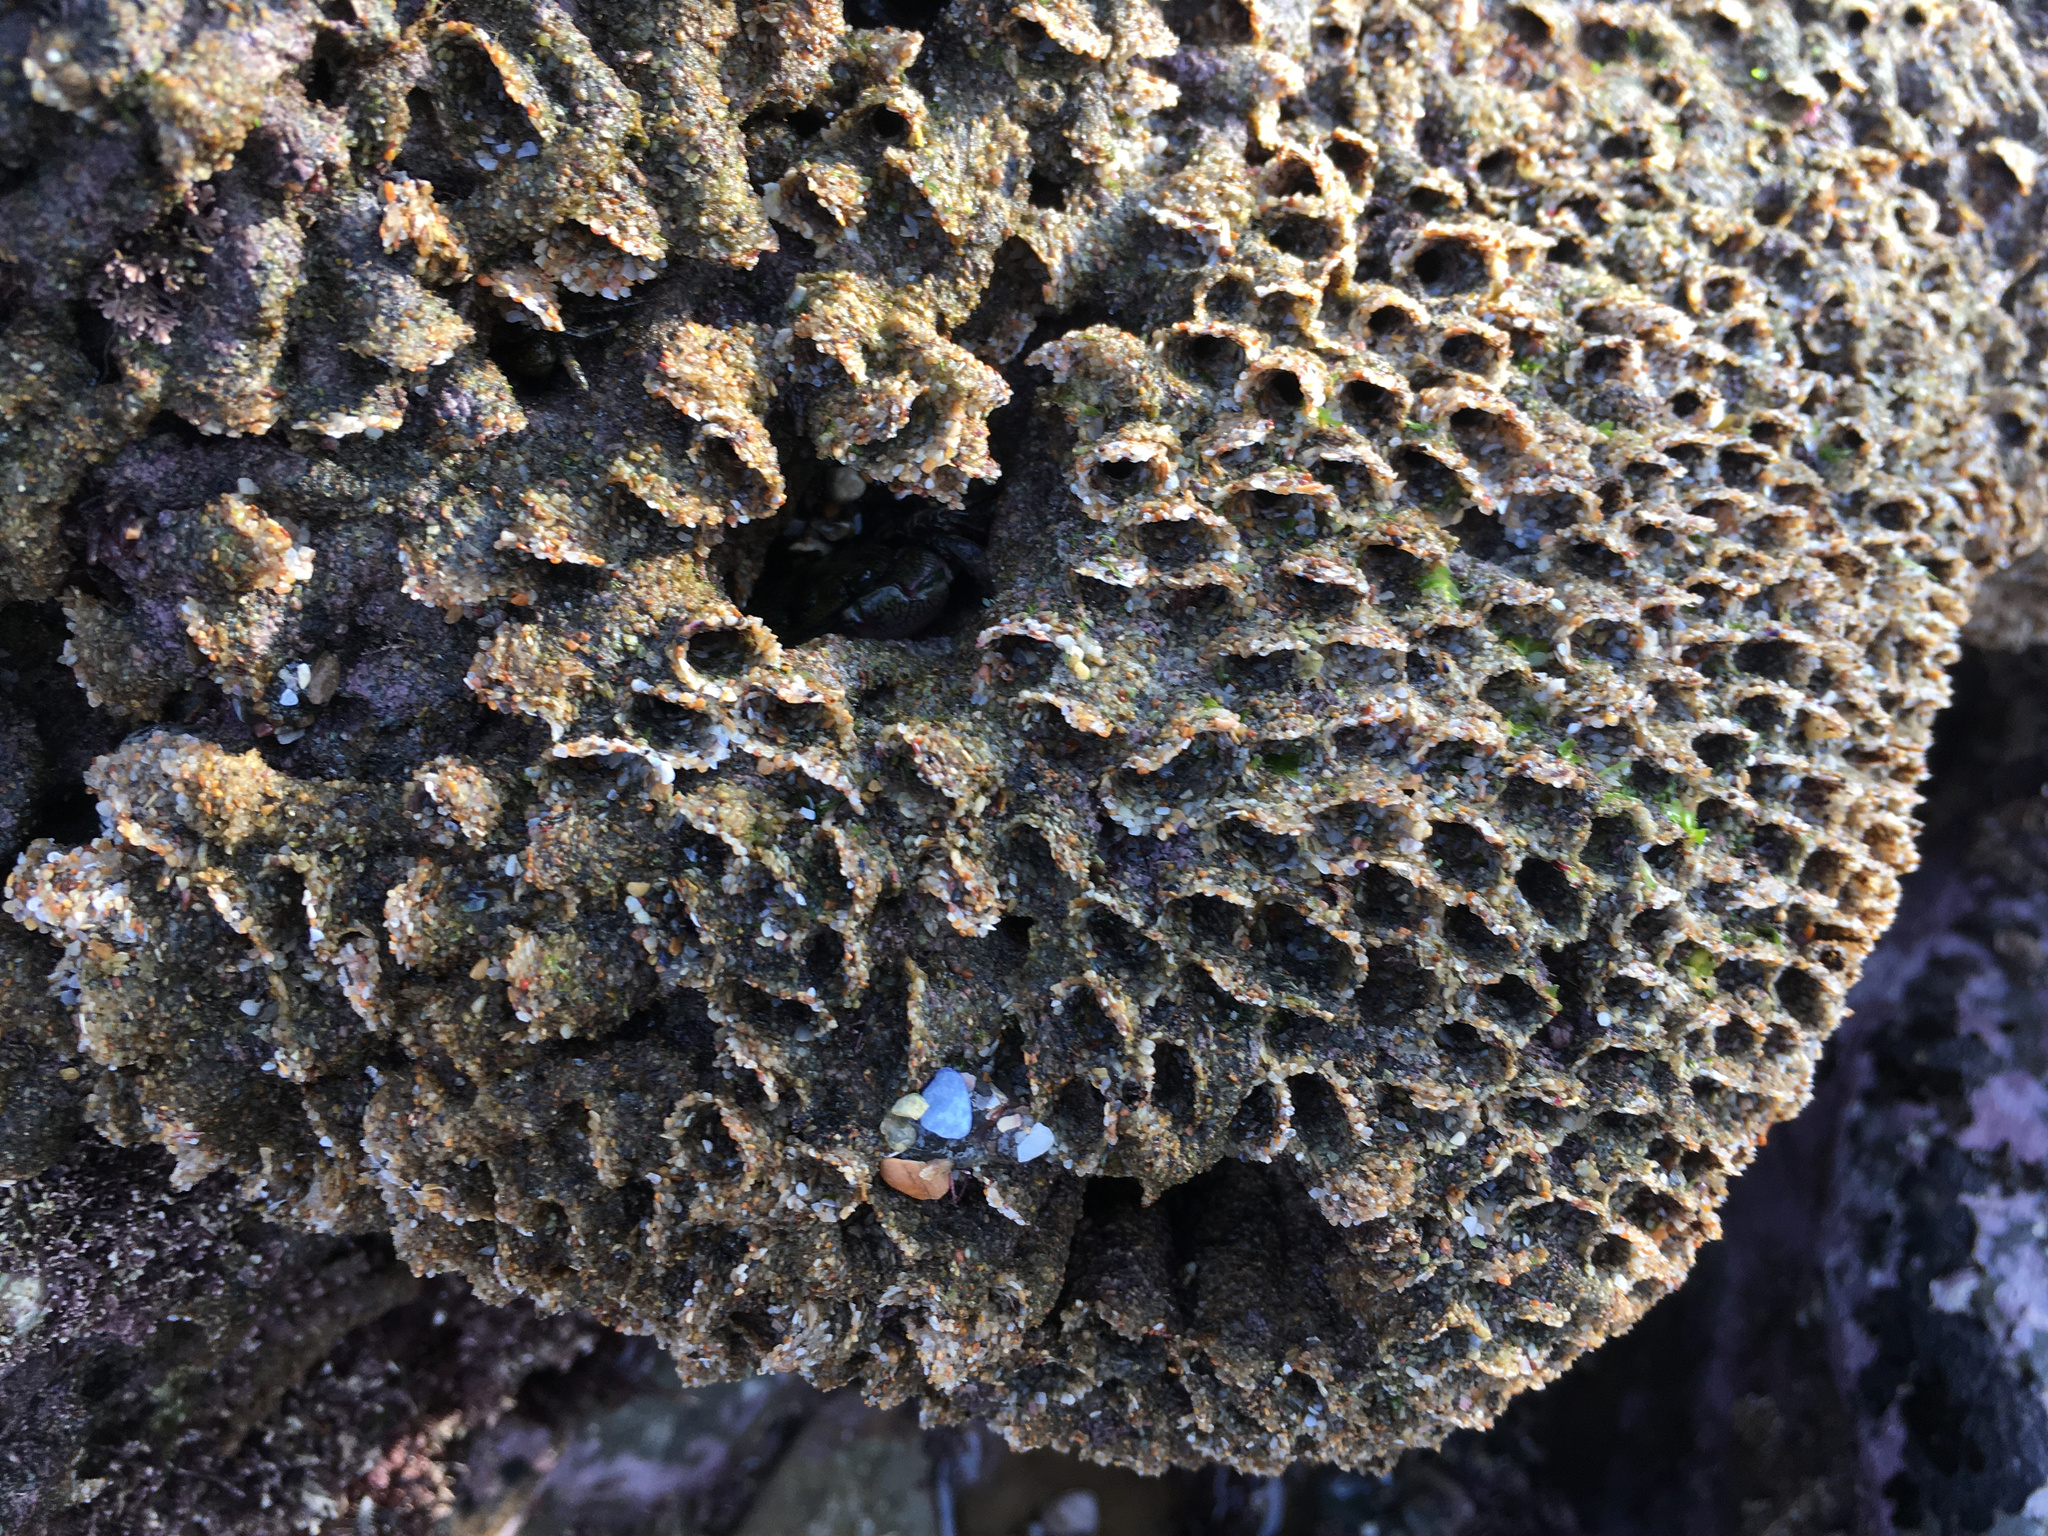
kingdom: Animalia
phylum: Annelida
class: Polychaeta
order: Sabellida
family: Sabellariidae
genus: Phragmatopoma
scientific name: Phragmatopoma californica
